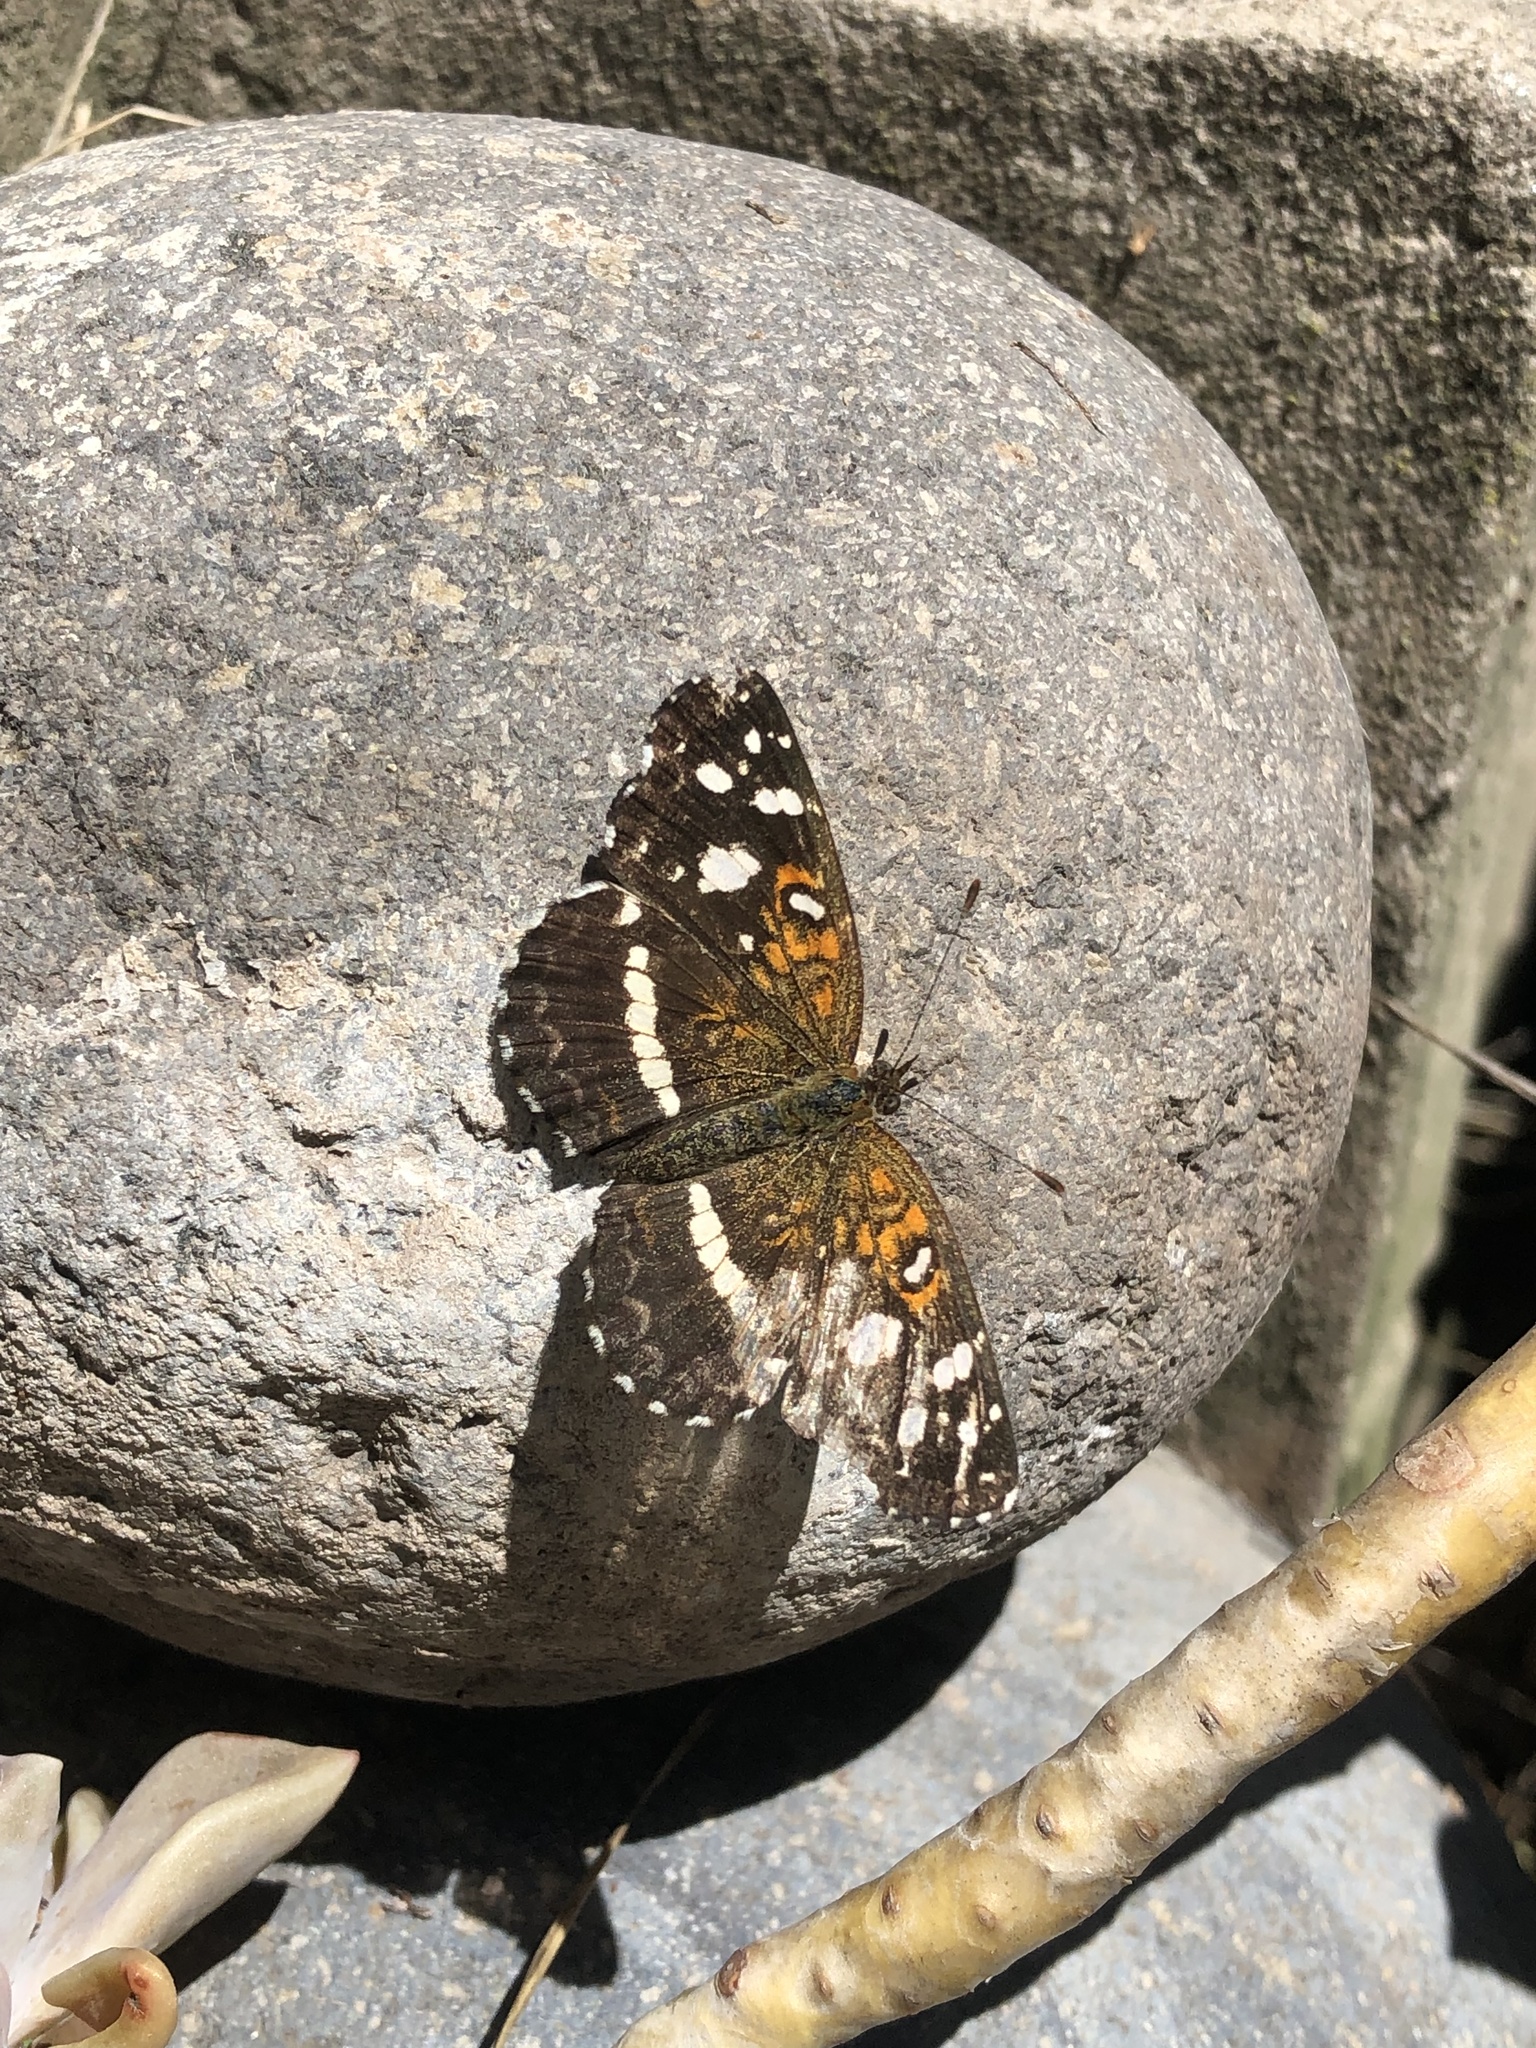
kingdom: Animalia
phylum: Arthropoda
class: Insecta
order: Lepidoptera
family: Nymphalidae
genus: Ortilia
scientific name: Ortilia ithra
